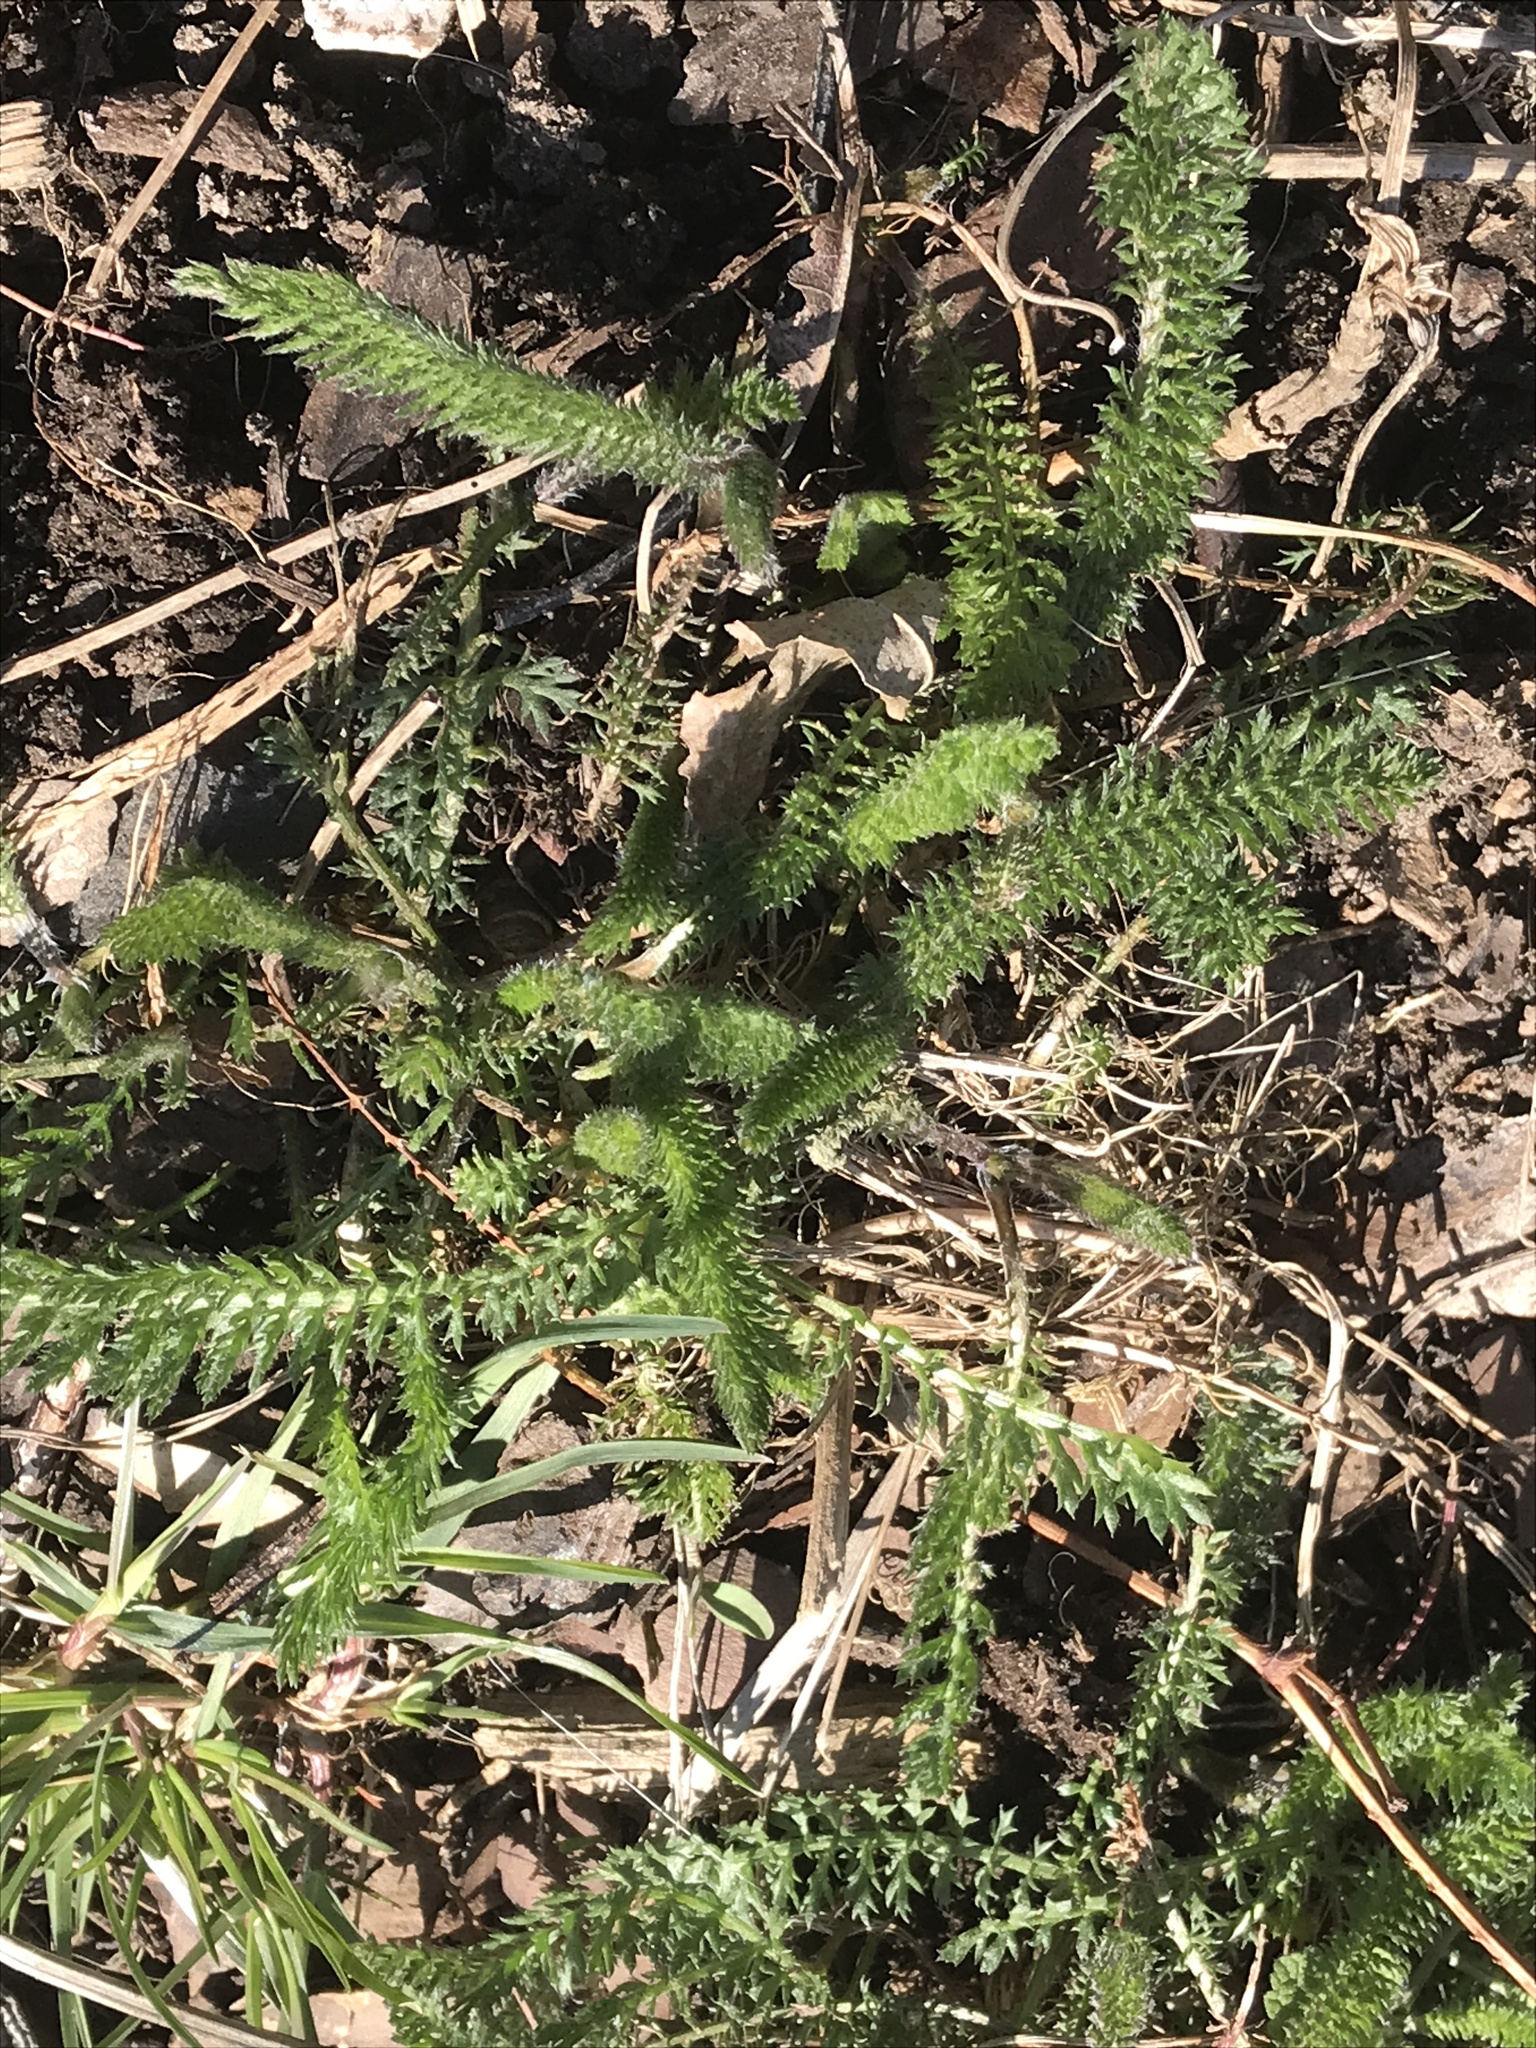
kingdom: Plantae
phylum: Tracheophyta
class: Magnoliopsida
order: Asterales
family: Asteraceae
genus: Achillea
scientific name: Achillea millefolium
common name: Yarrow
